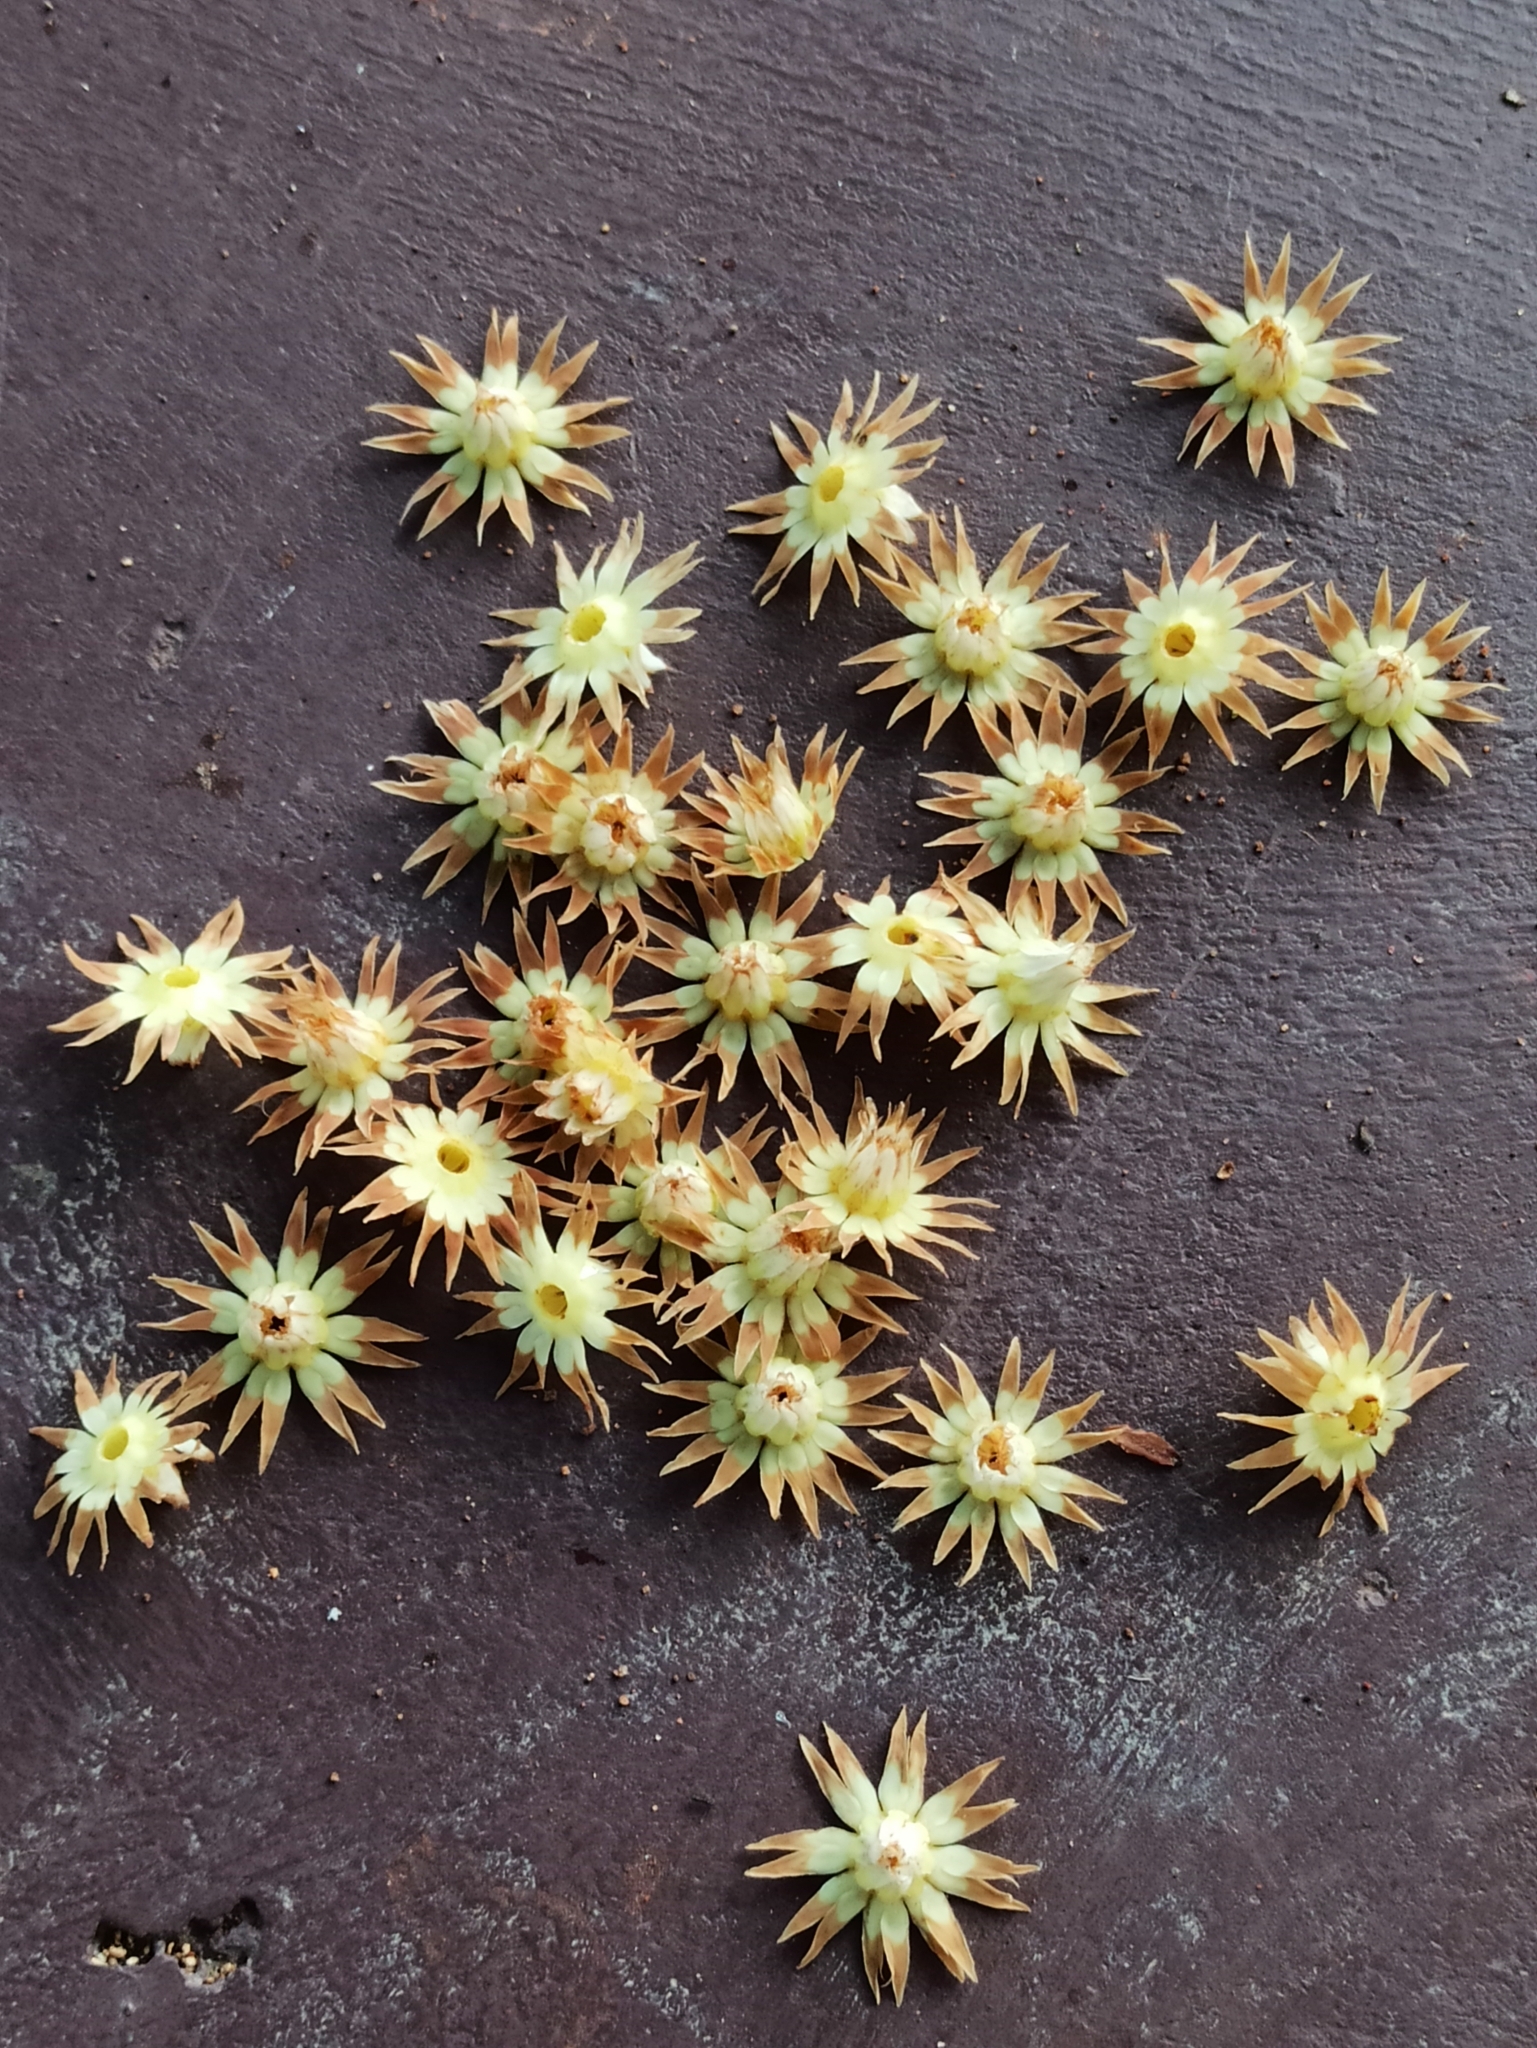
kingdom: Plantae
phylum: Tracheophyta
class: Magnoliopsida
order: Ericales
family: Sapotaceae
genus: Mimusops
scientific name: Mimusops elengi
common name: Spanish cherry
